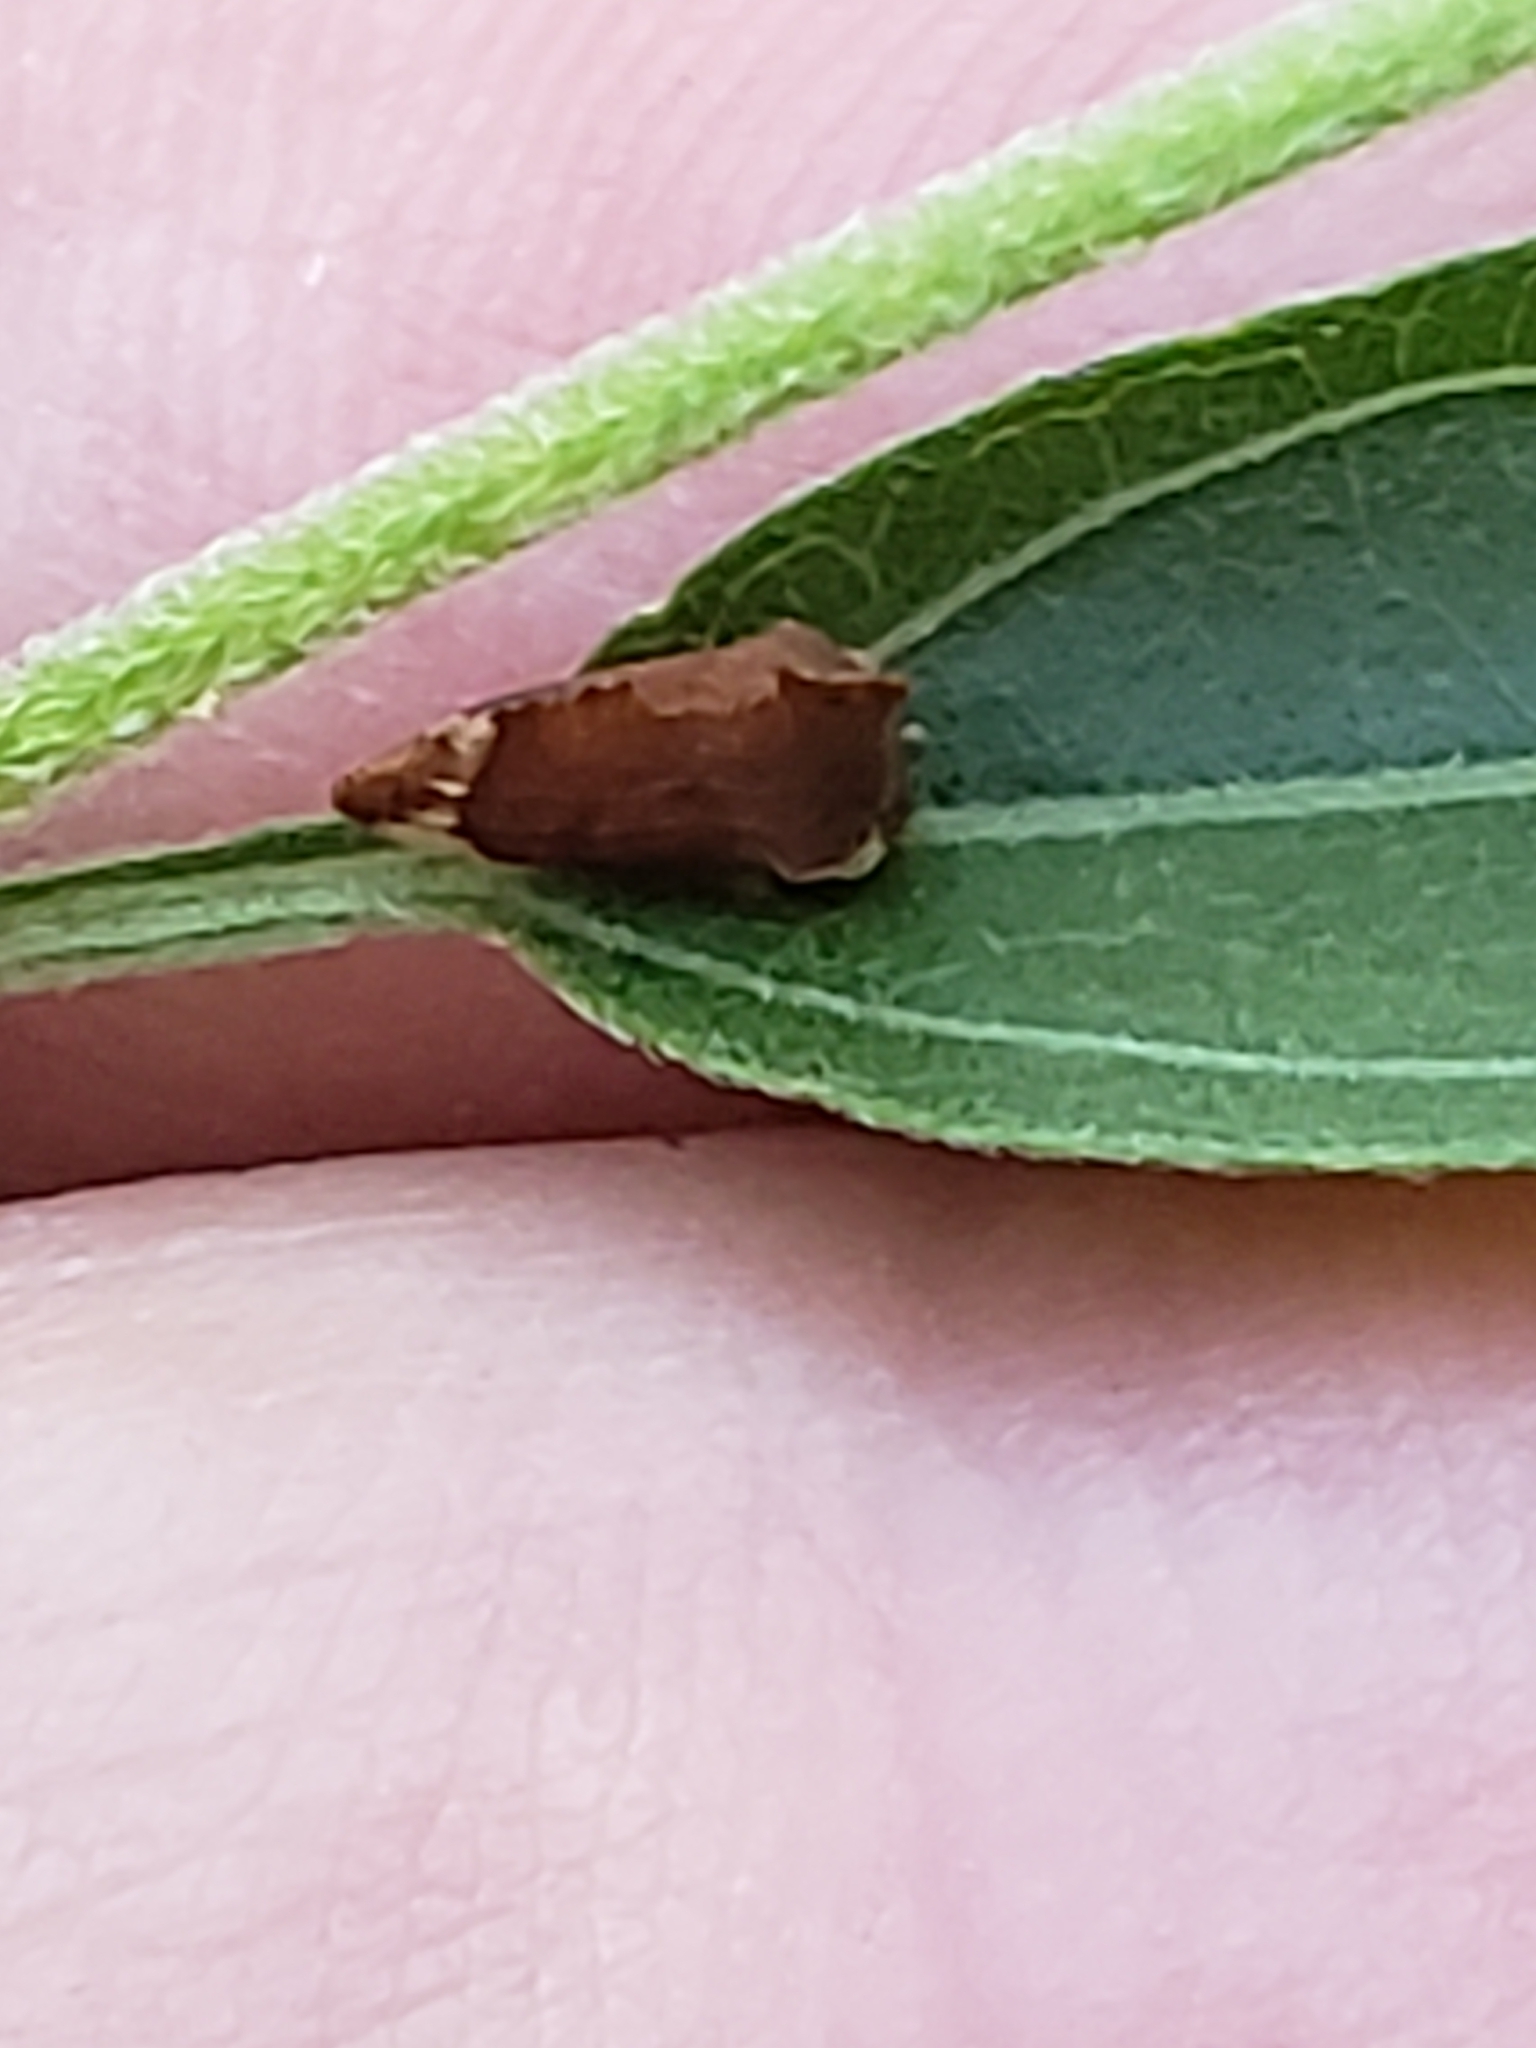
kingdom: Animalia
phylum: Arthropoda
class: Insecta
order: Hemiptera
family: Membracidae
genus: Entylia
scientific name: Entylia carinata
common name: Keeled treehopper
